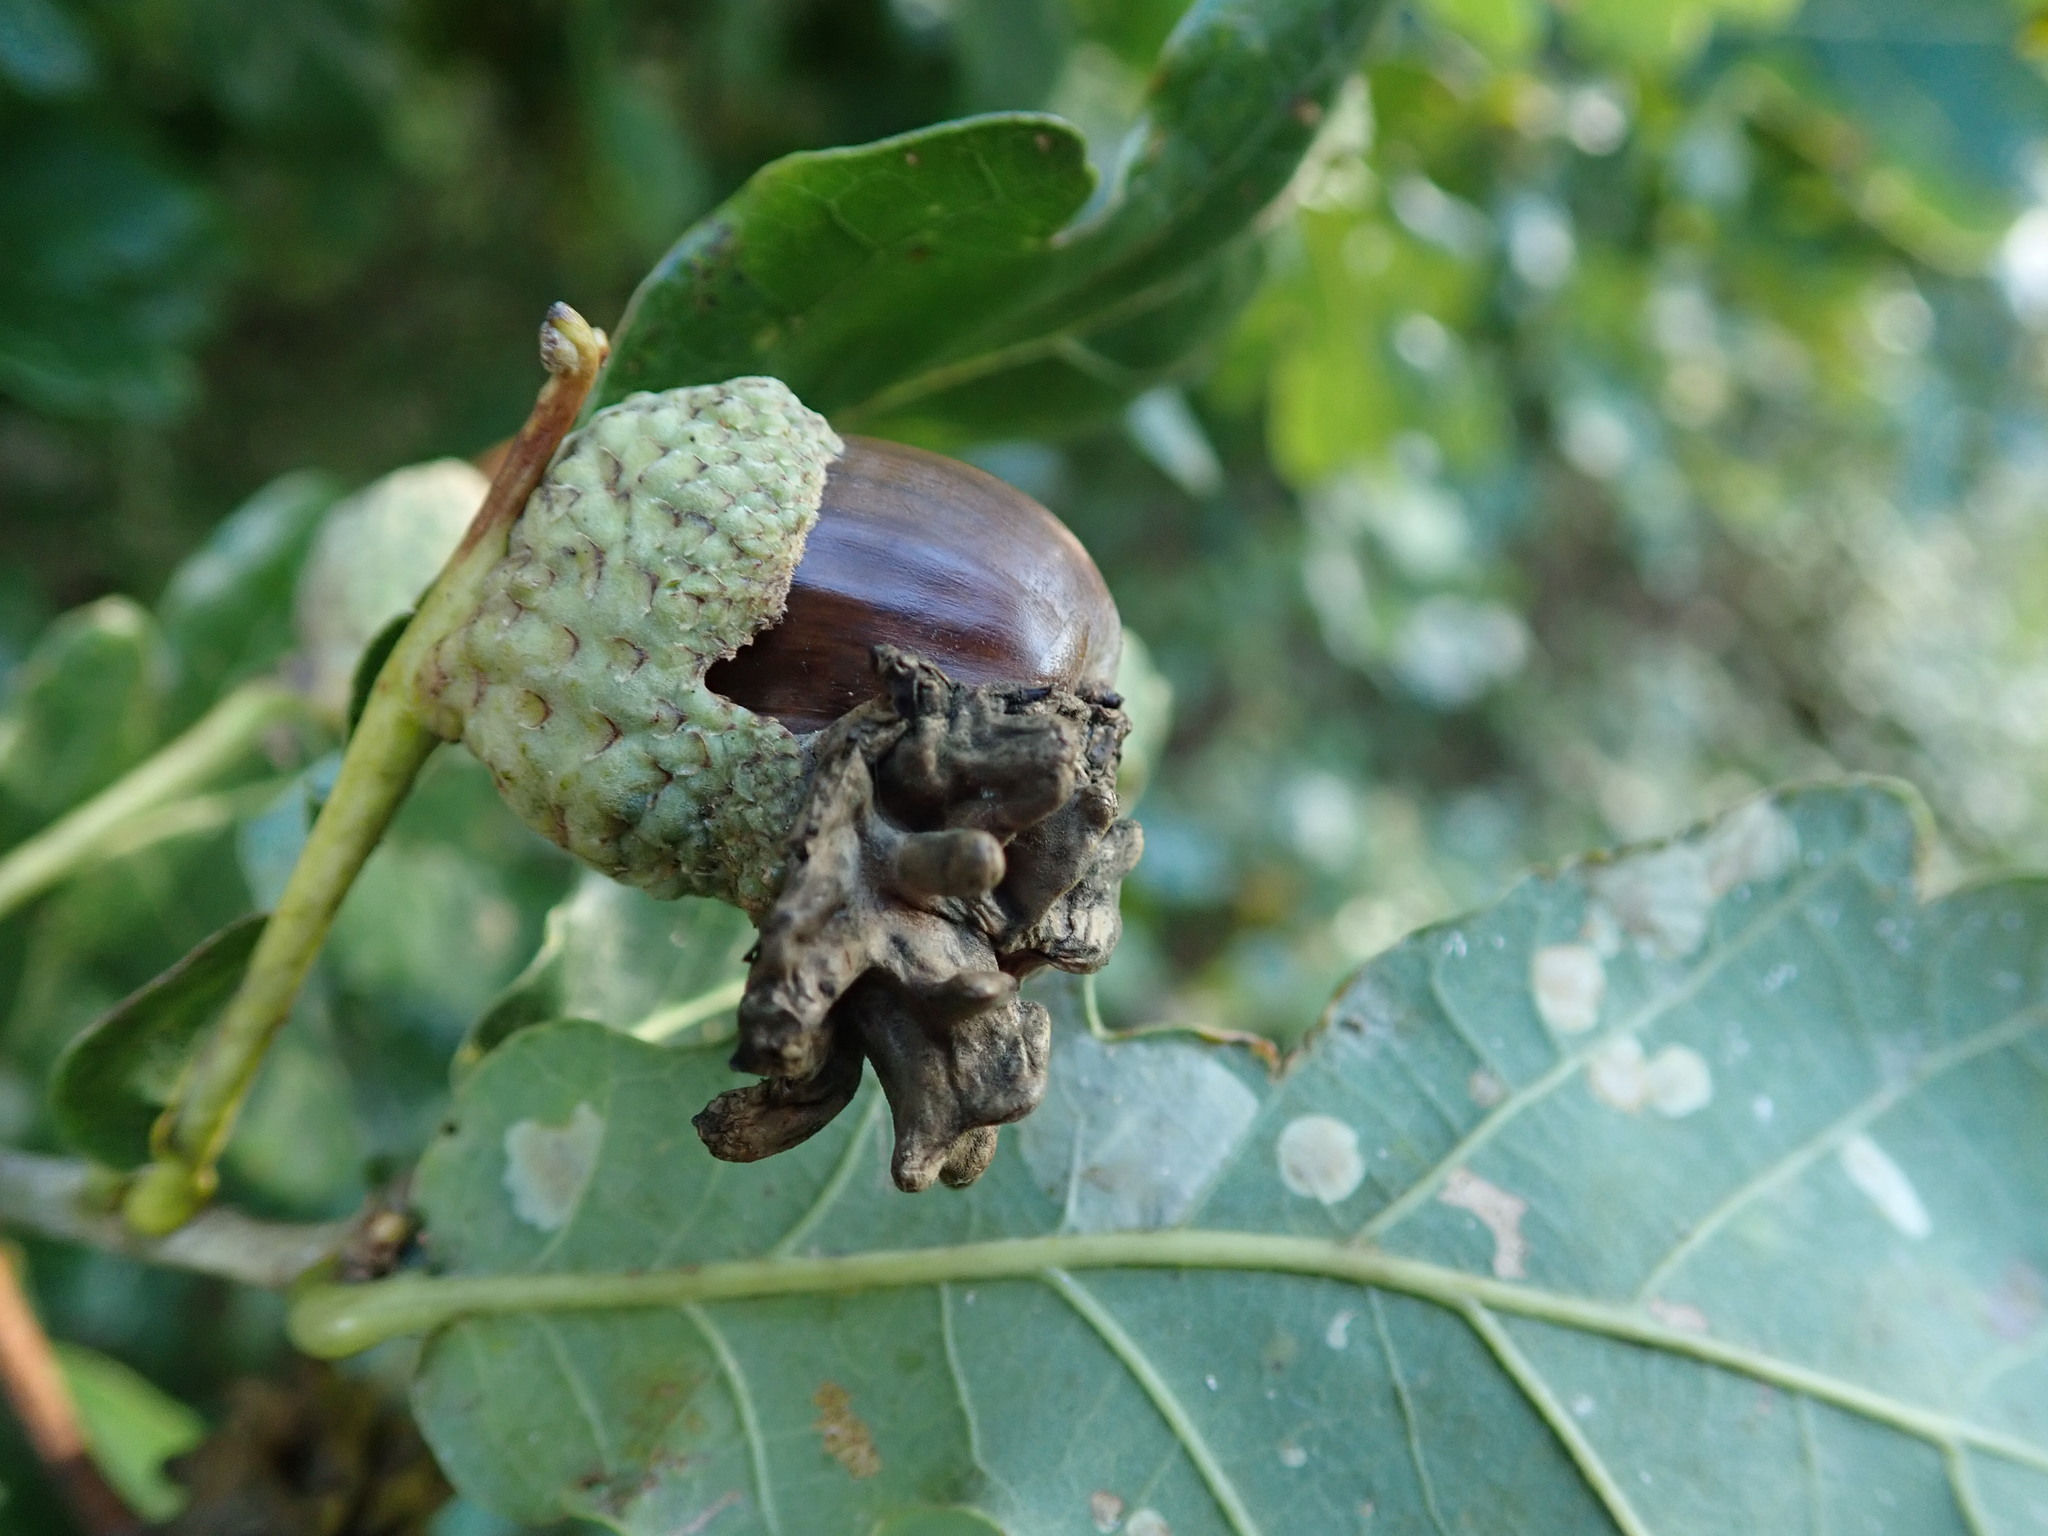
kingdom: Animalia
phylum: Arthropoda
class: Insecta
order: Hymenoptera
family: Cynipidae
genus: Andricus
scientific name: Andricus quercuscalicis
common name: Knopper gall
